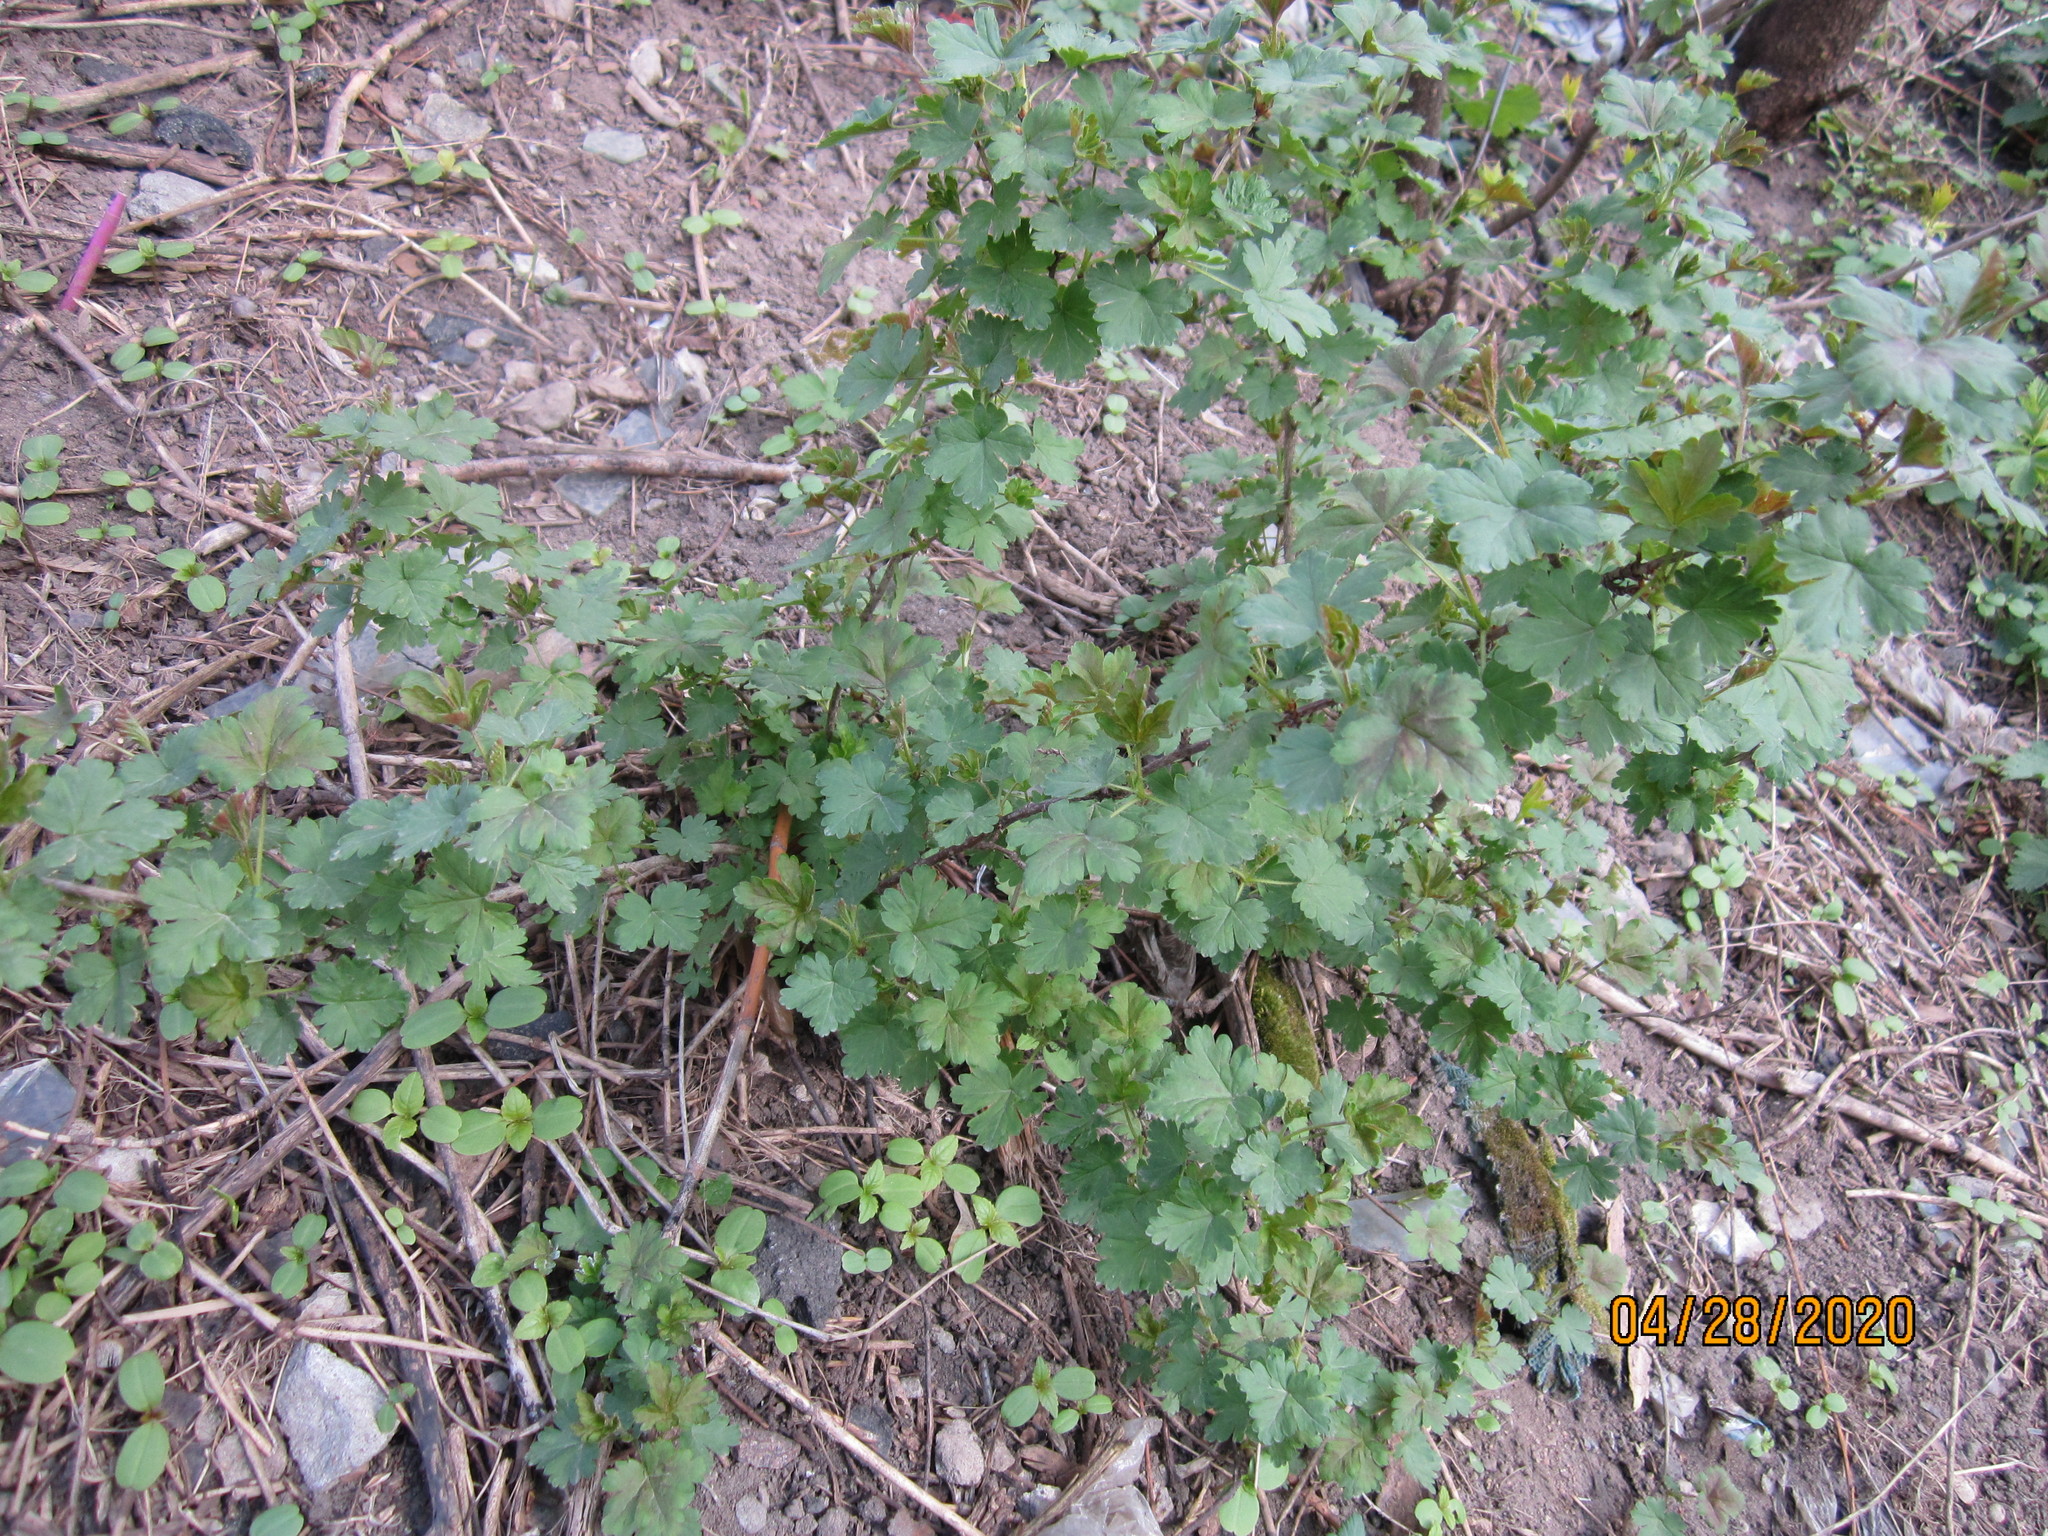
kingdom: Plantae
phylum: Tracheophyta
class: Magnoliopsida
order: Saxifragales
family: Grossulariaceae
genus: Ribes
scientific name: Ribes uva-crispa
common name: Gooseberry
